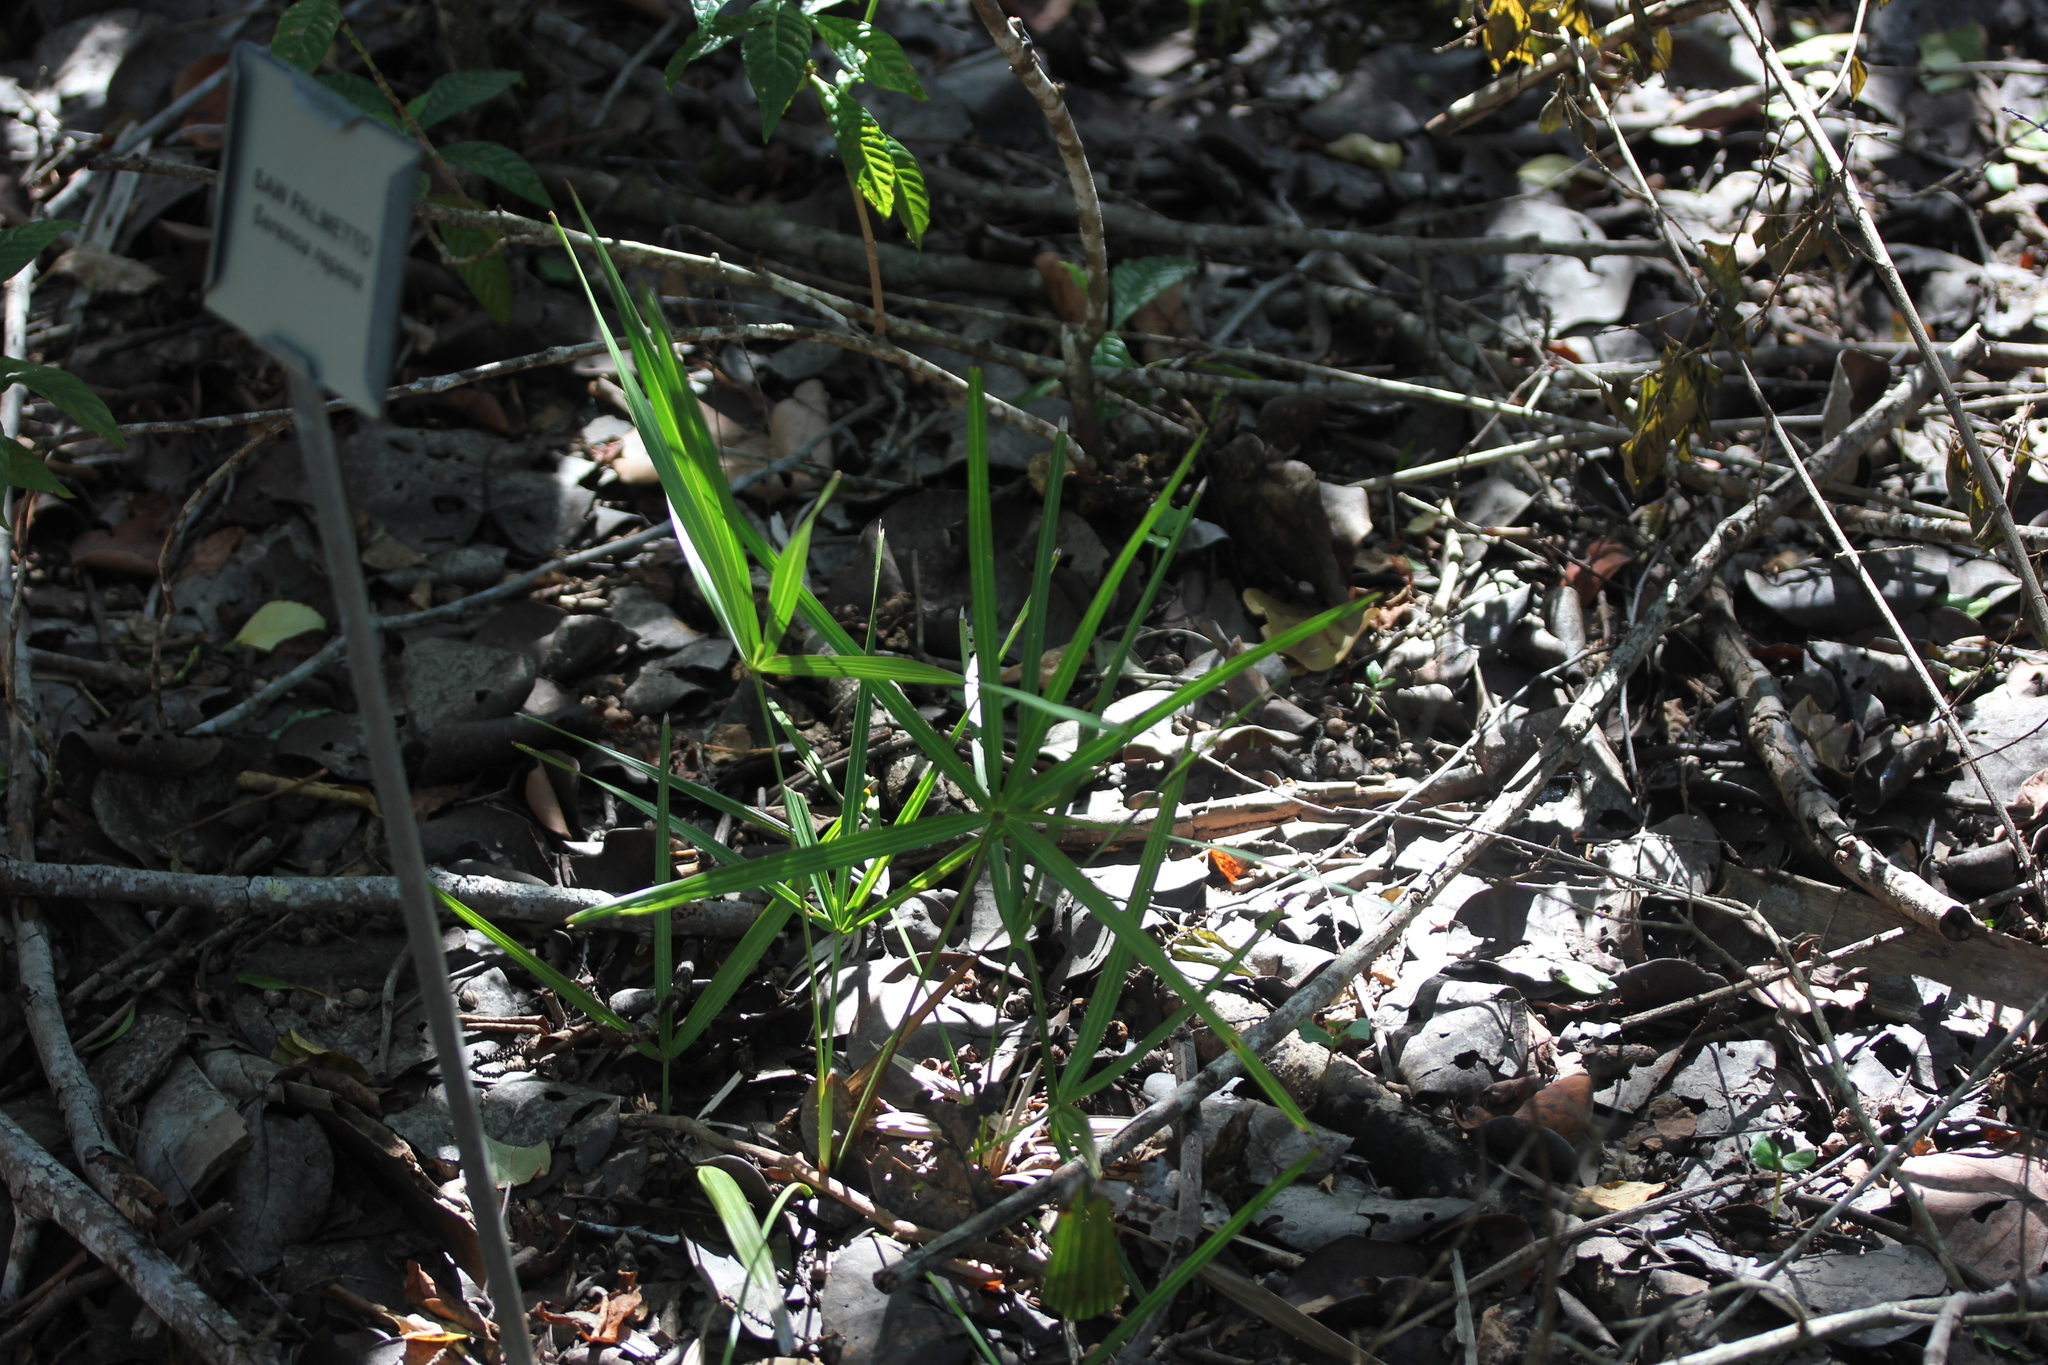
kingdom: Plantae
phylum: Tracheophyta
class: Liliopsida
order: Arecales
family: Arecaceae
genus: Serenoa
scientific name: Serenoa repens
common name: Saw-palmetto
